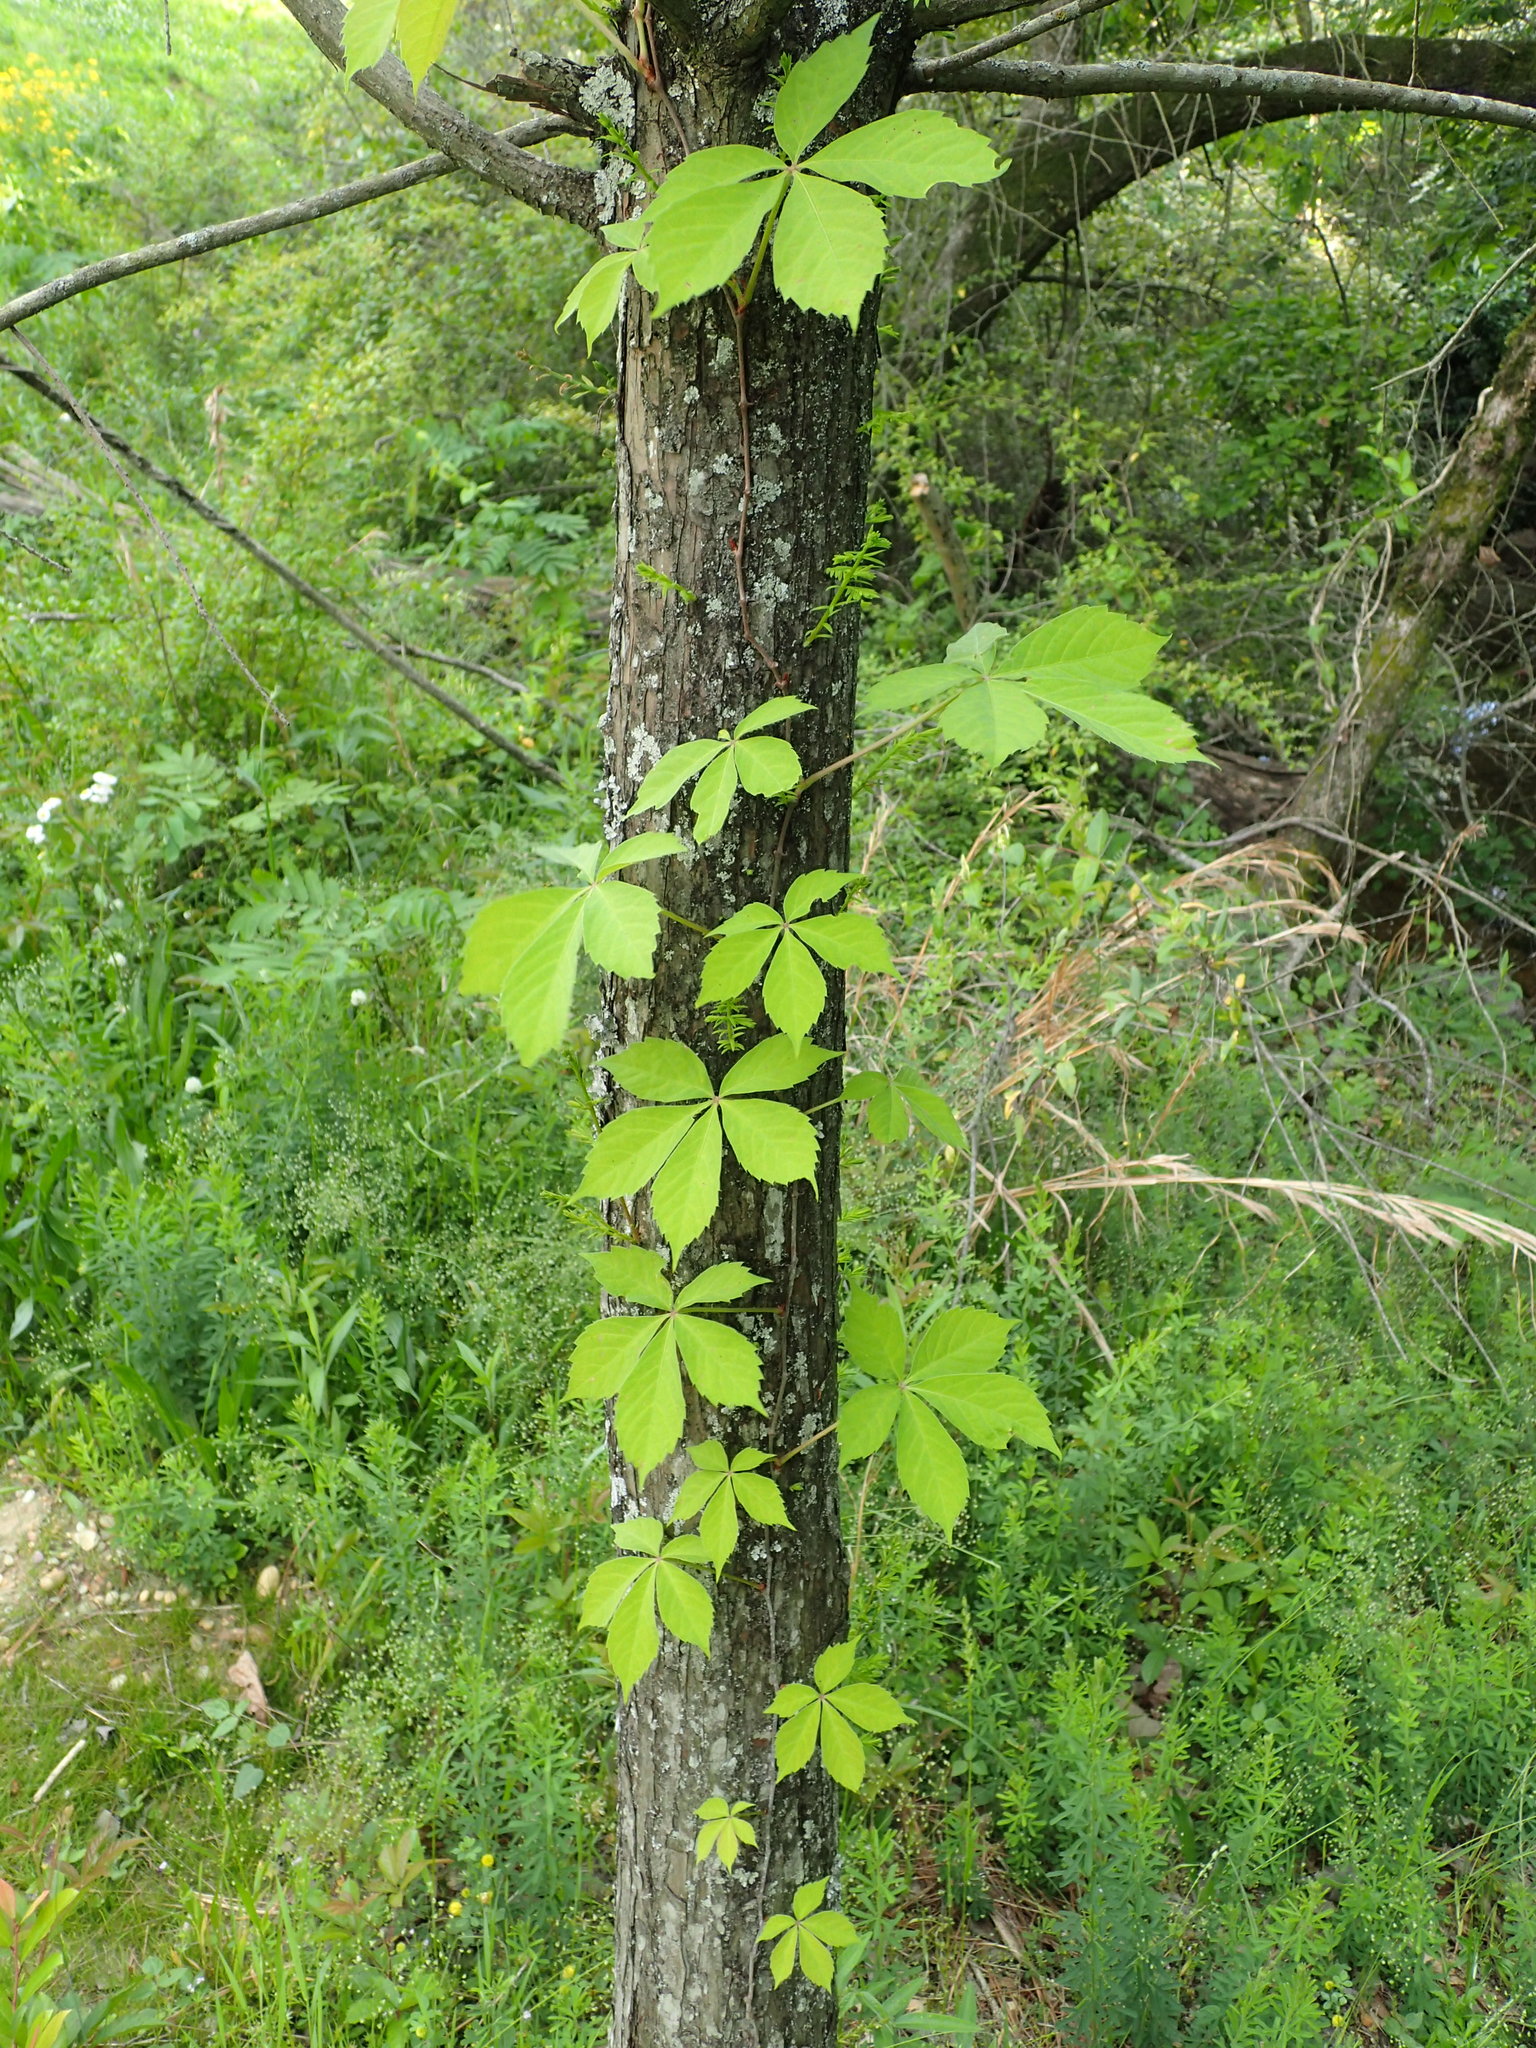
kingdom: Plantae
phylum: Tracheophyta
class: Magnoliopsida
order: Vitales
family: Vitaceae
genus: Parthenocissus
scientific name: Parthenocissus quinquefolia
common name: Virginia-creeper
